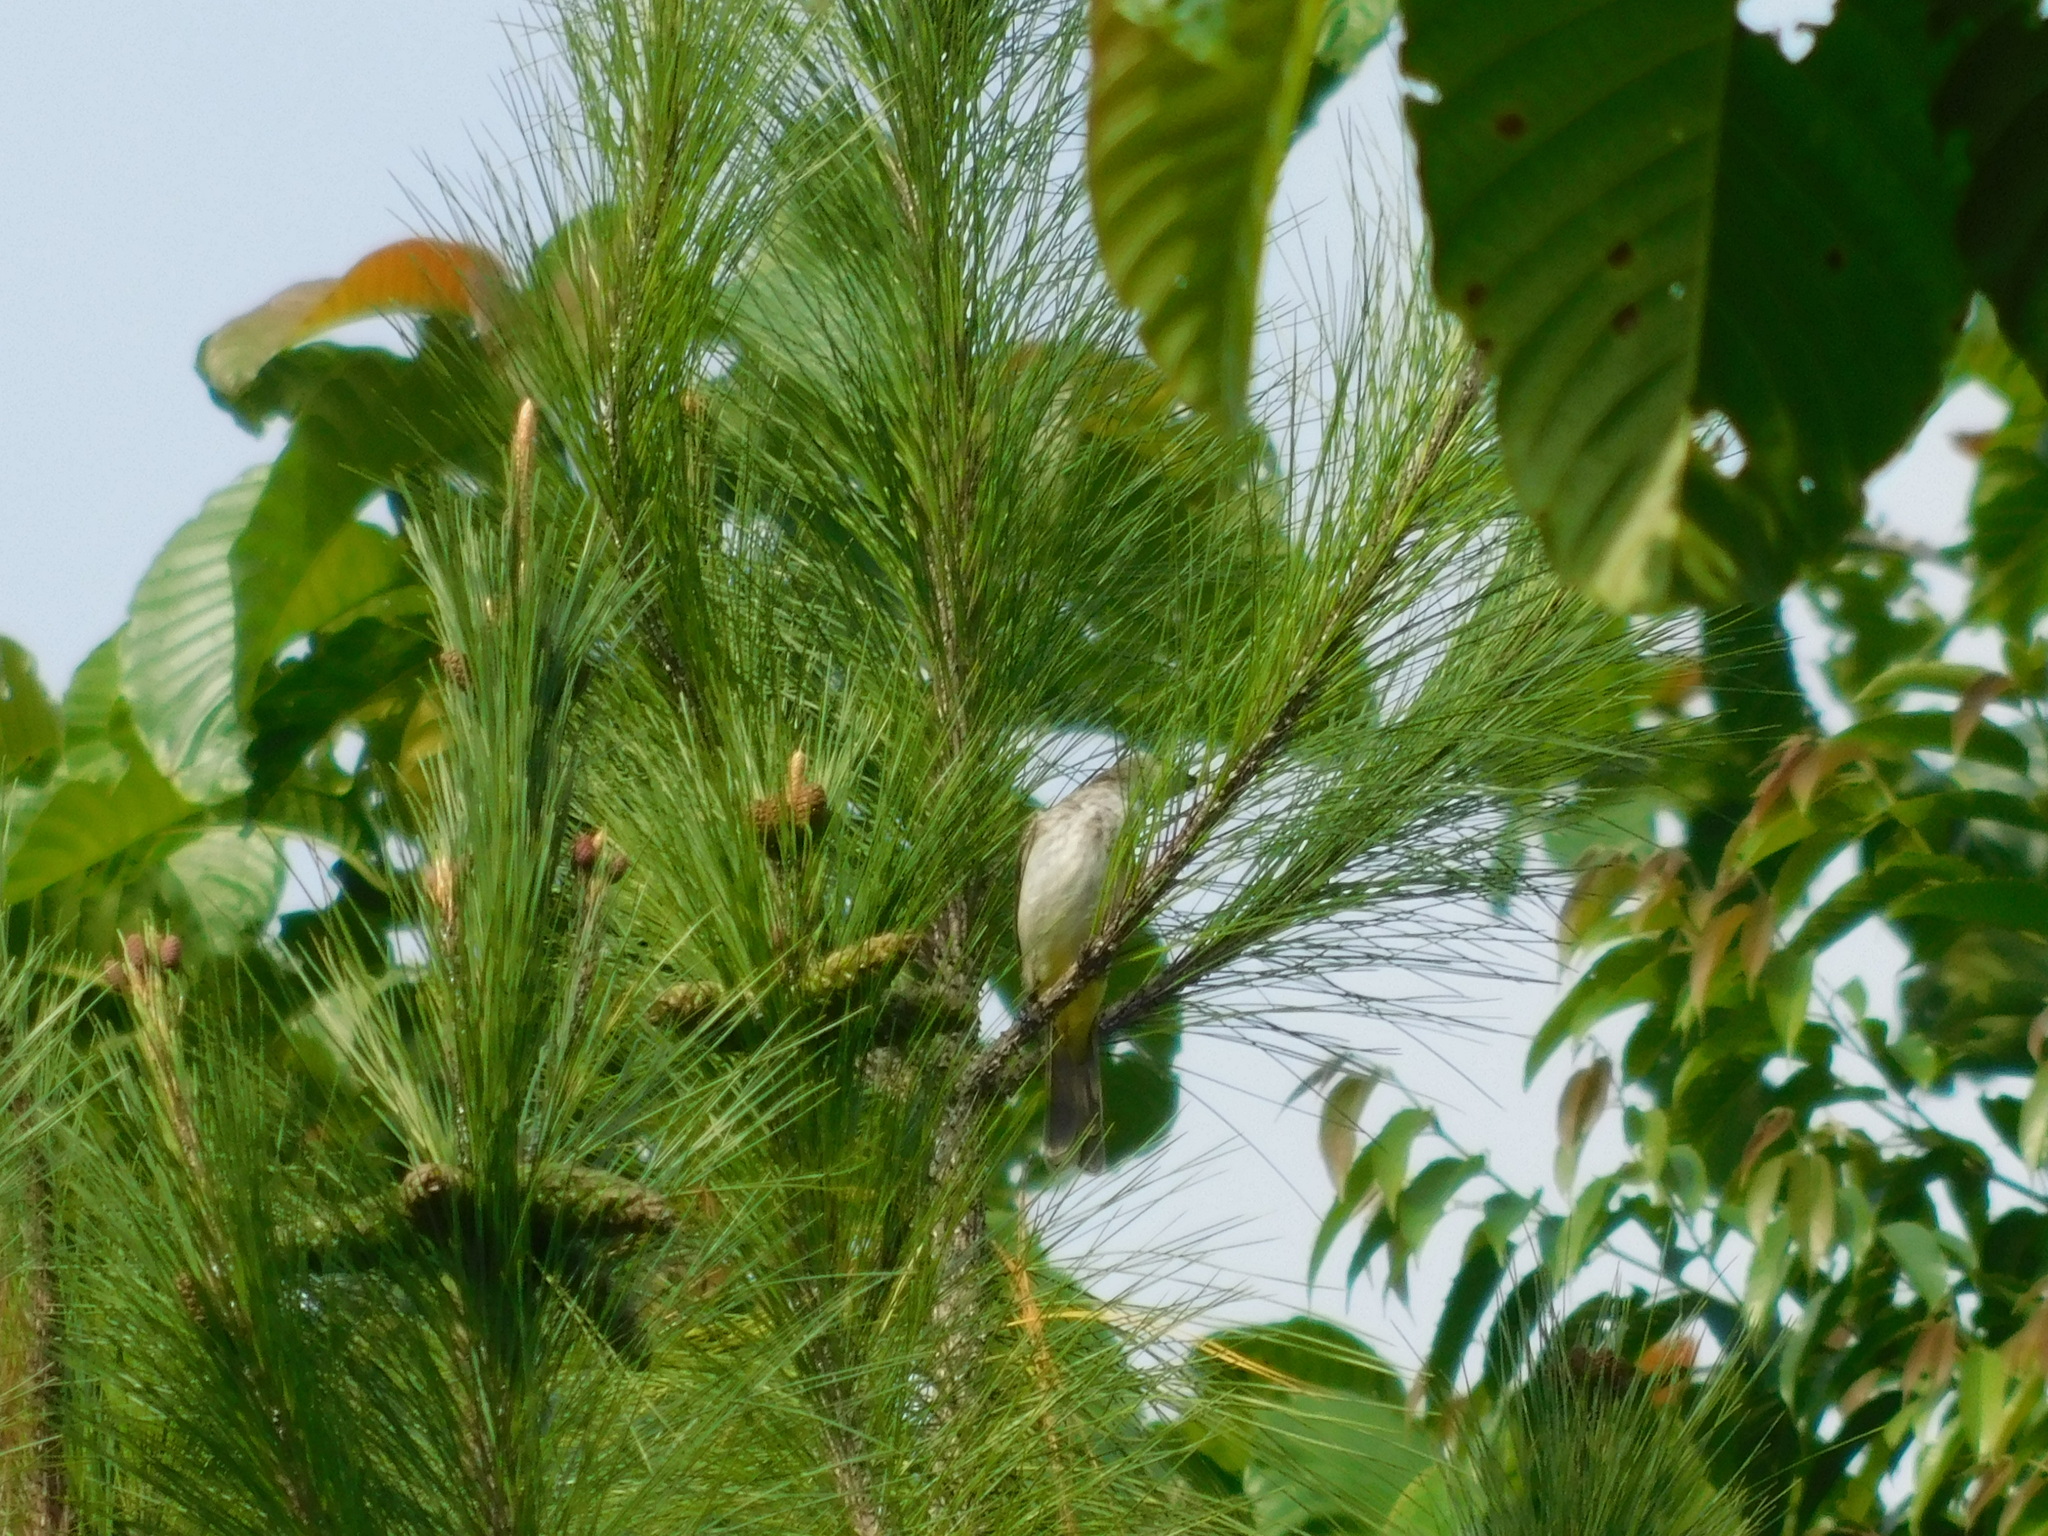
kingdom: Animalia
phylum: Chordata
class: Aves
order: Passeriformes
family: Pycnonotidae
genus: Pycnonotus
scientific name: Pycnonotus goiavier
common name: Yellow-vented bulbul
